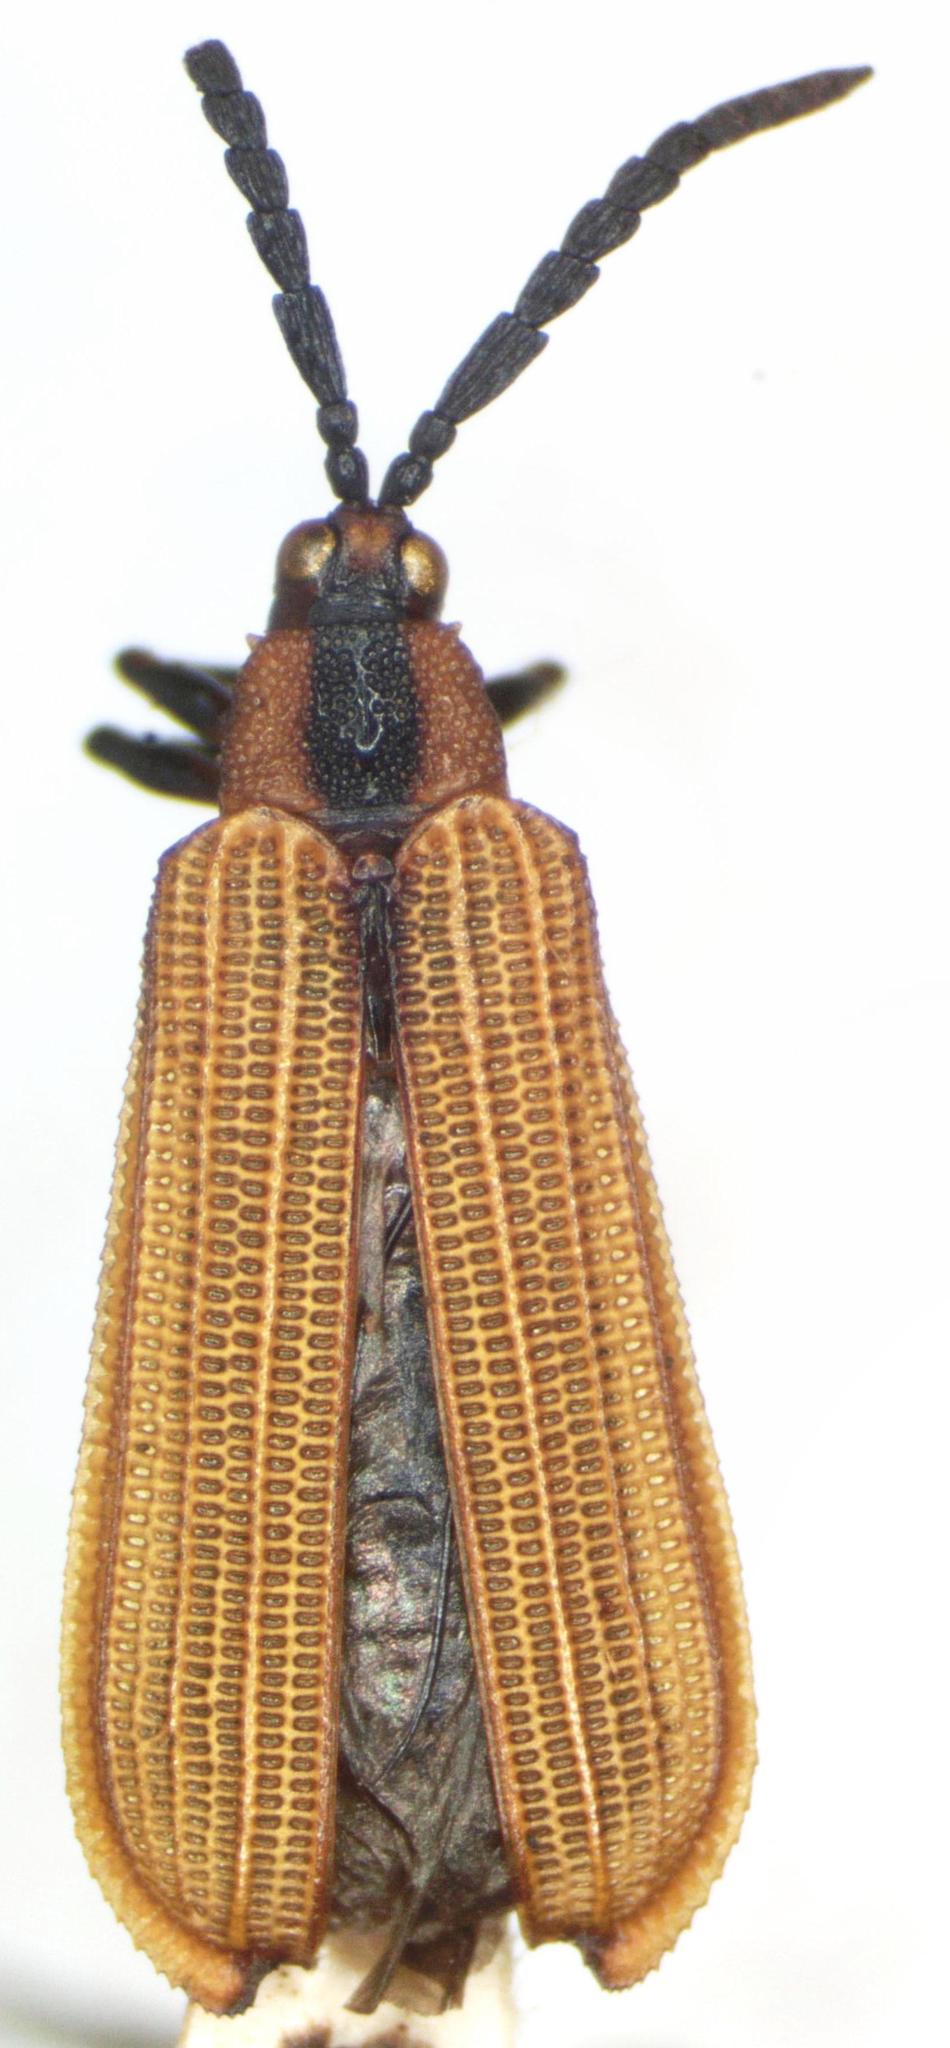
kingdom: Animalia
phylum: Arthropoda
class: Insecta
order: Coleoptera
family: Chrysomelidae
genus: Platocthispa
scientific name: Platocthispa emorsitans
